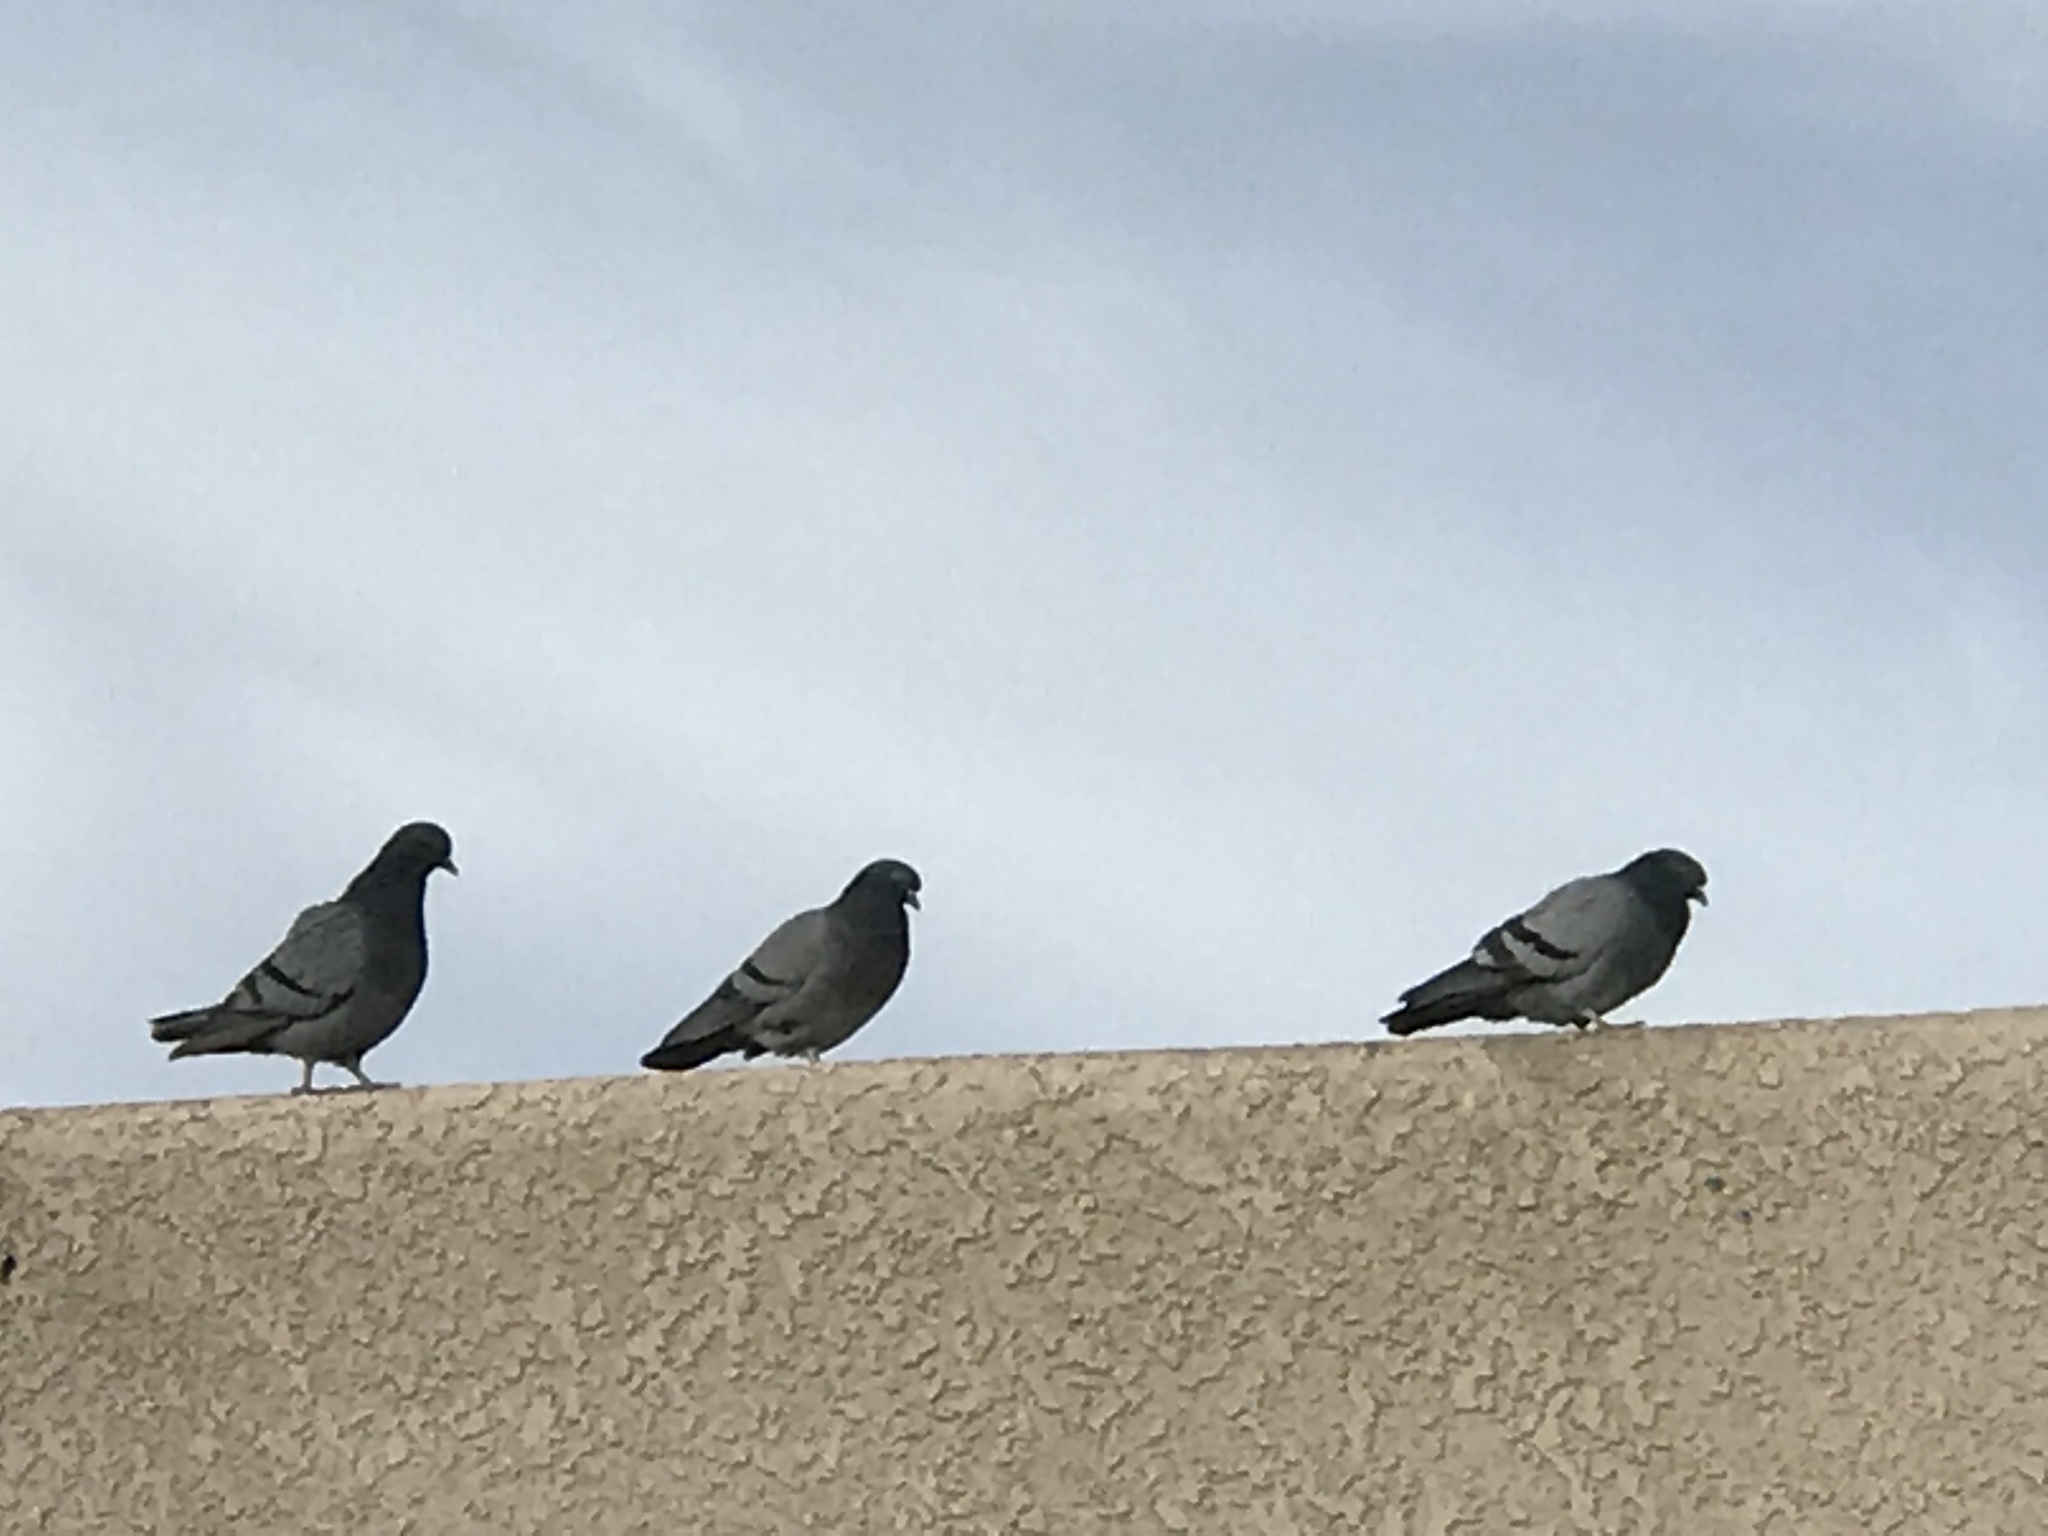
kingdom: Animalia
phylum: Chordata
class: Aves
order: Columbiformes
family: Columbidae
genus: Columba
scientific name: Columba livia
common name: Rock pigeon
